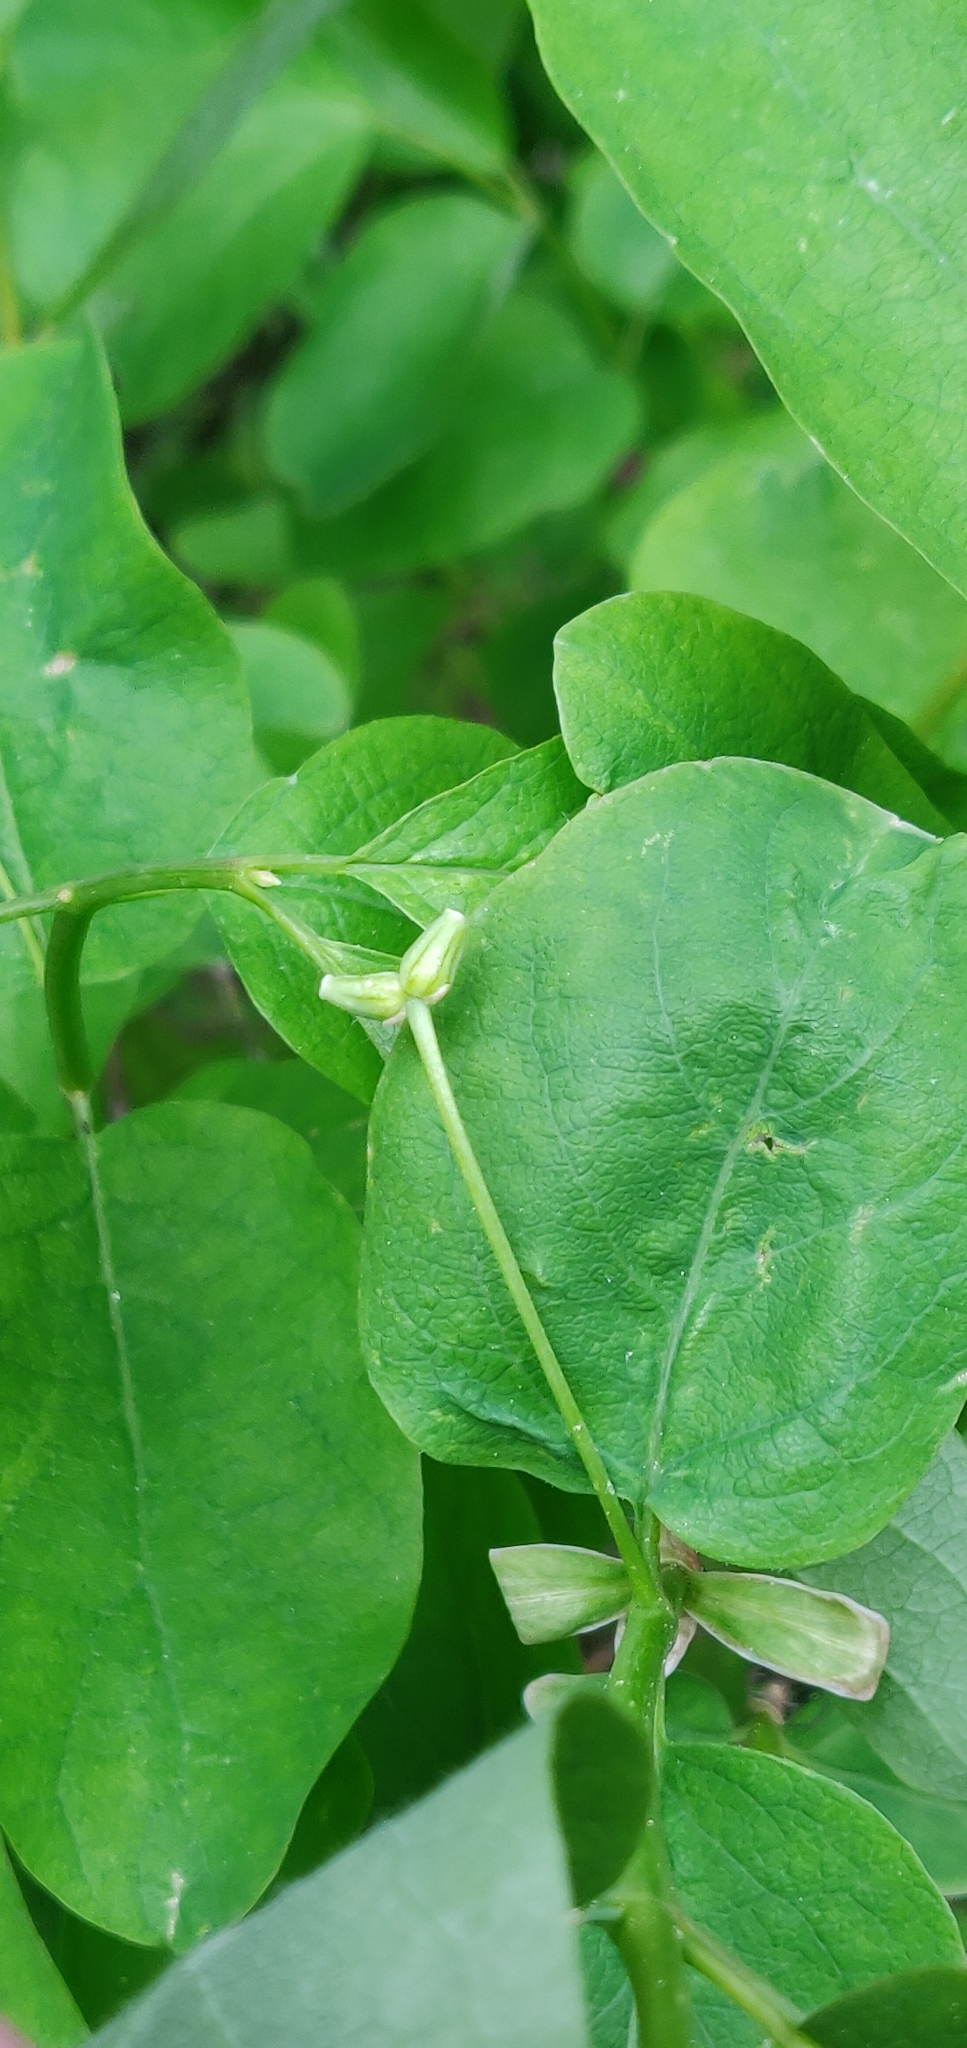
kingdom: Plantae
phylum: Tracheophyta
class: Magnoliopsida
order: Dipsacales
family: Caprifoliaceae
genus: Lonicera
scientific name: Lonicera utahensis
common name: Utah honeysuckle
